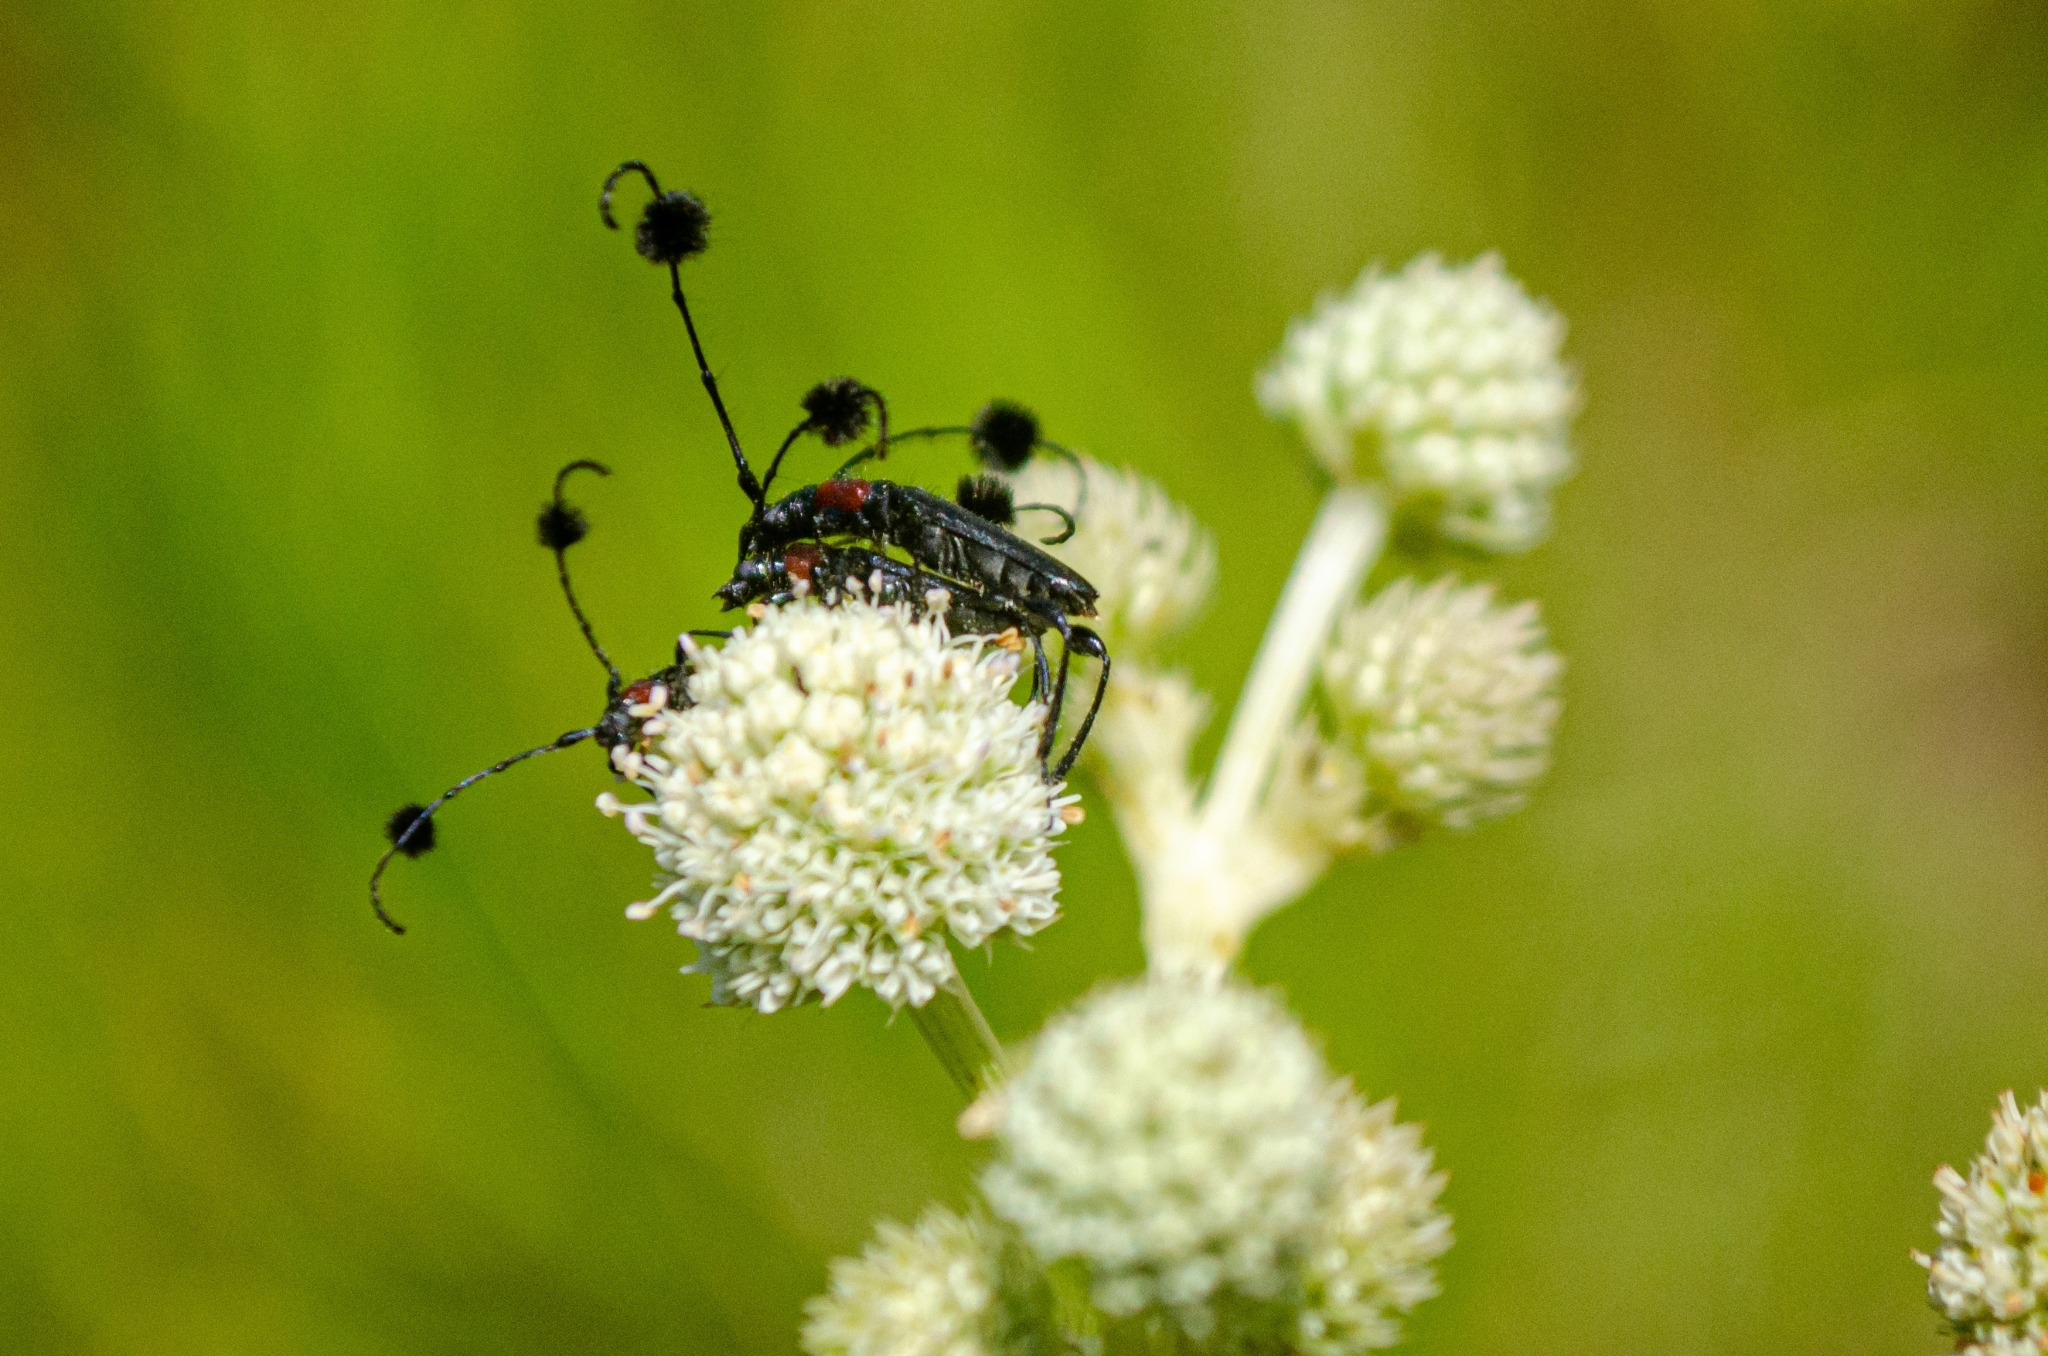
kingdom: Animalia
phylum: Arthropoda
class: Insecta
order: Coleoptera
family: Cerambycidae
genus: Cosmisoma
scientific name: Cosmisoma brullei
